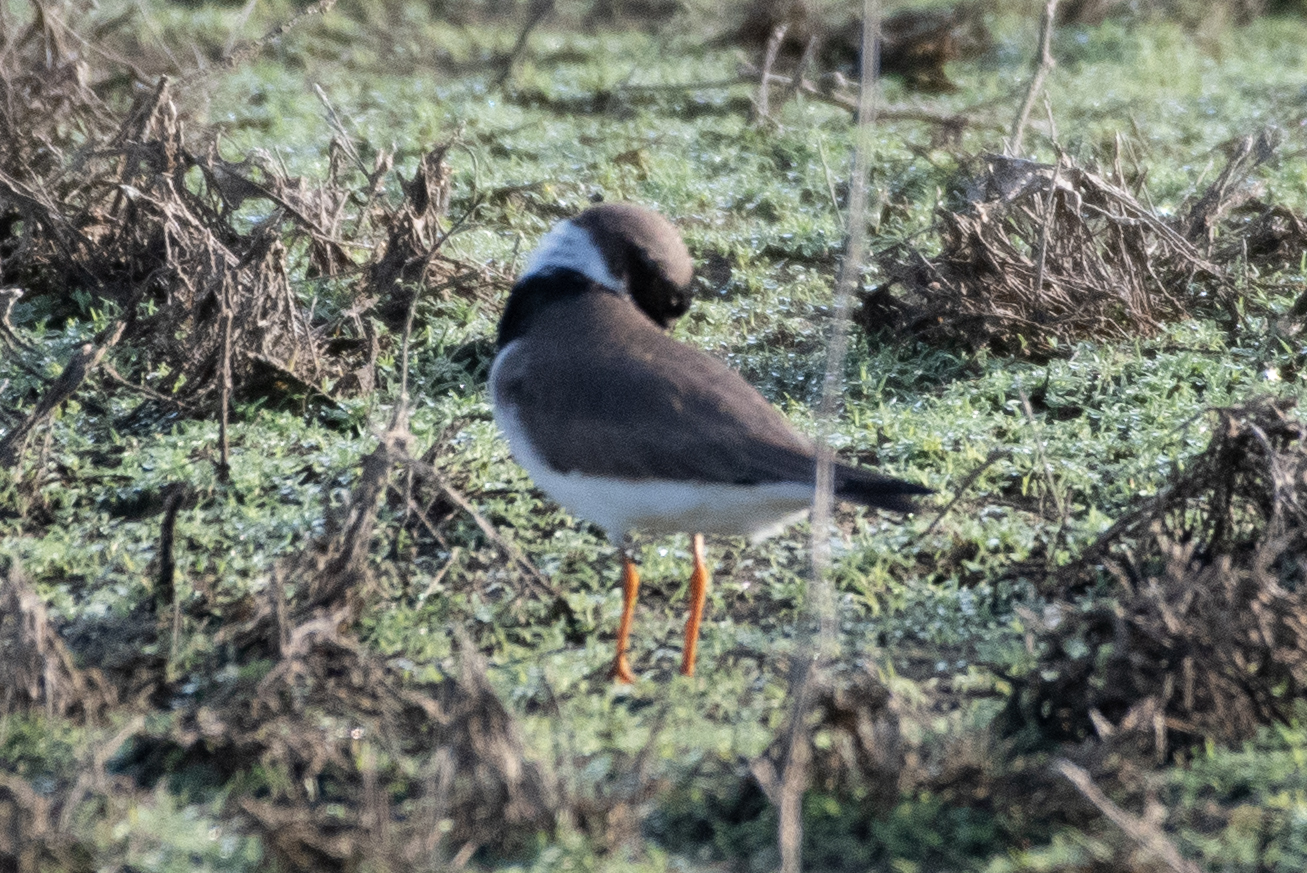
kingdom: Animalia
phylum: Chordata
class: Aves
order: Charadriiformes
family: Charadriidae
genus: Charadrius
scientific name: Charadrius semipalmatus
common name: Semipalmated plover
